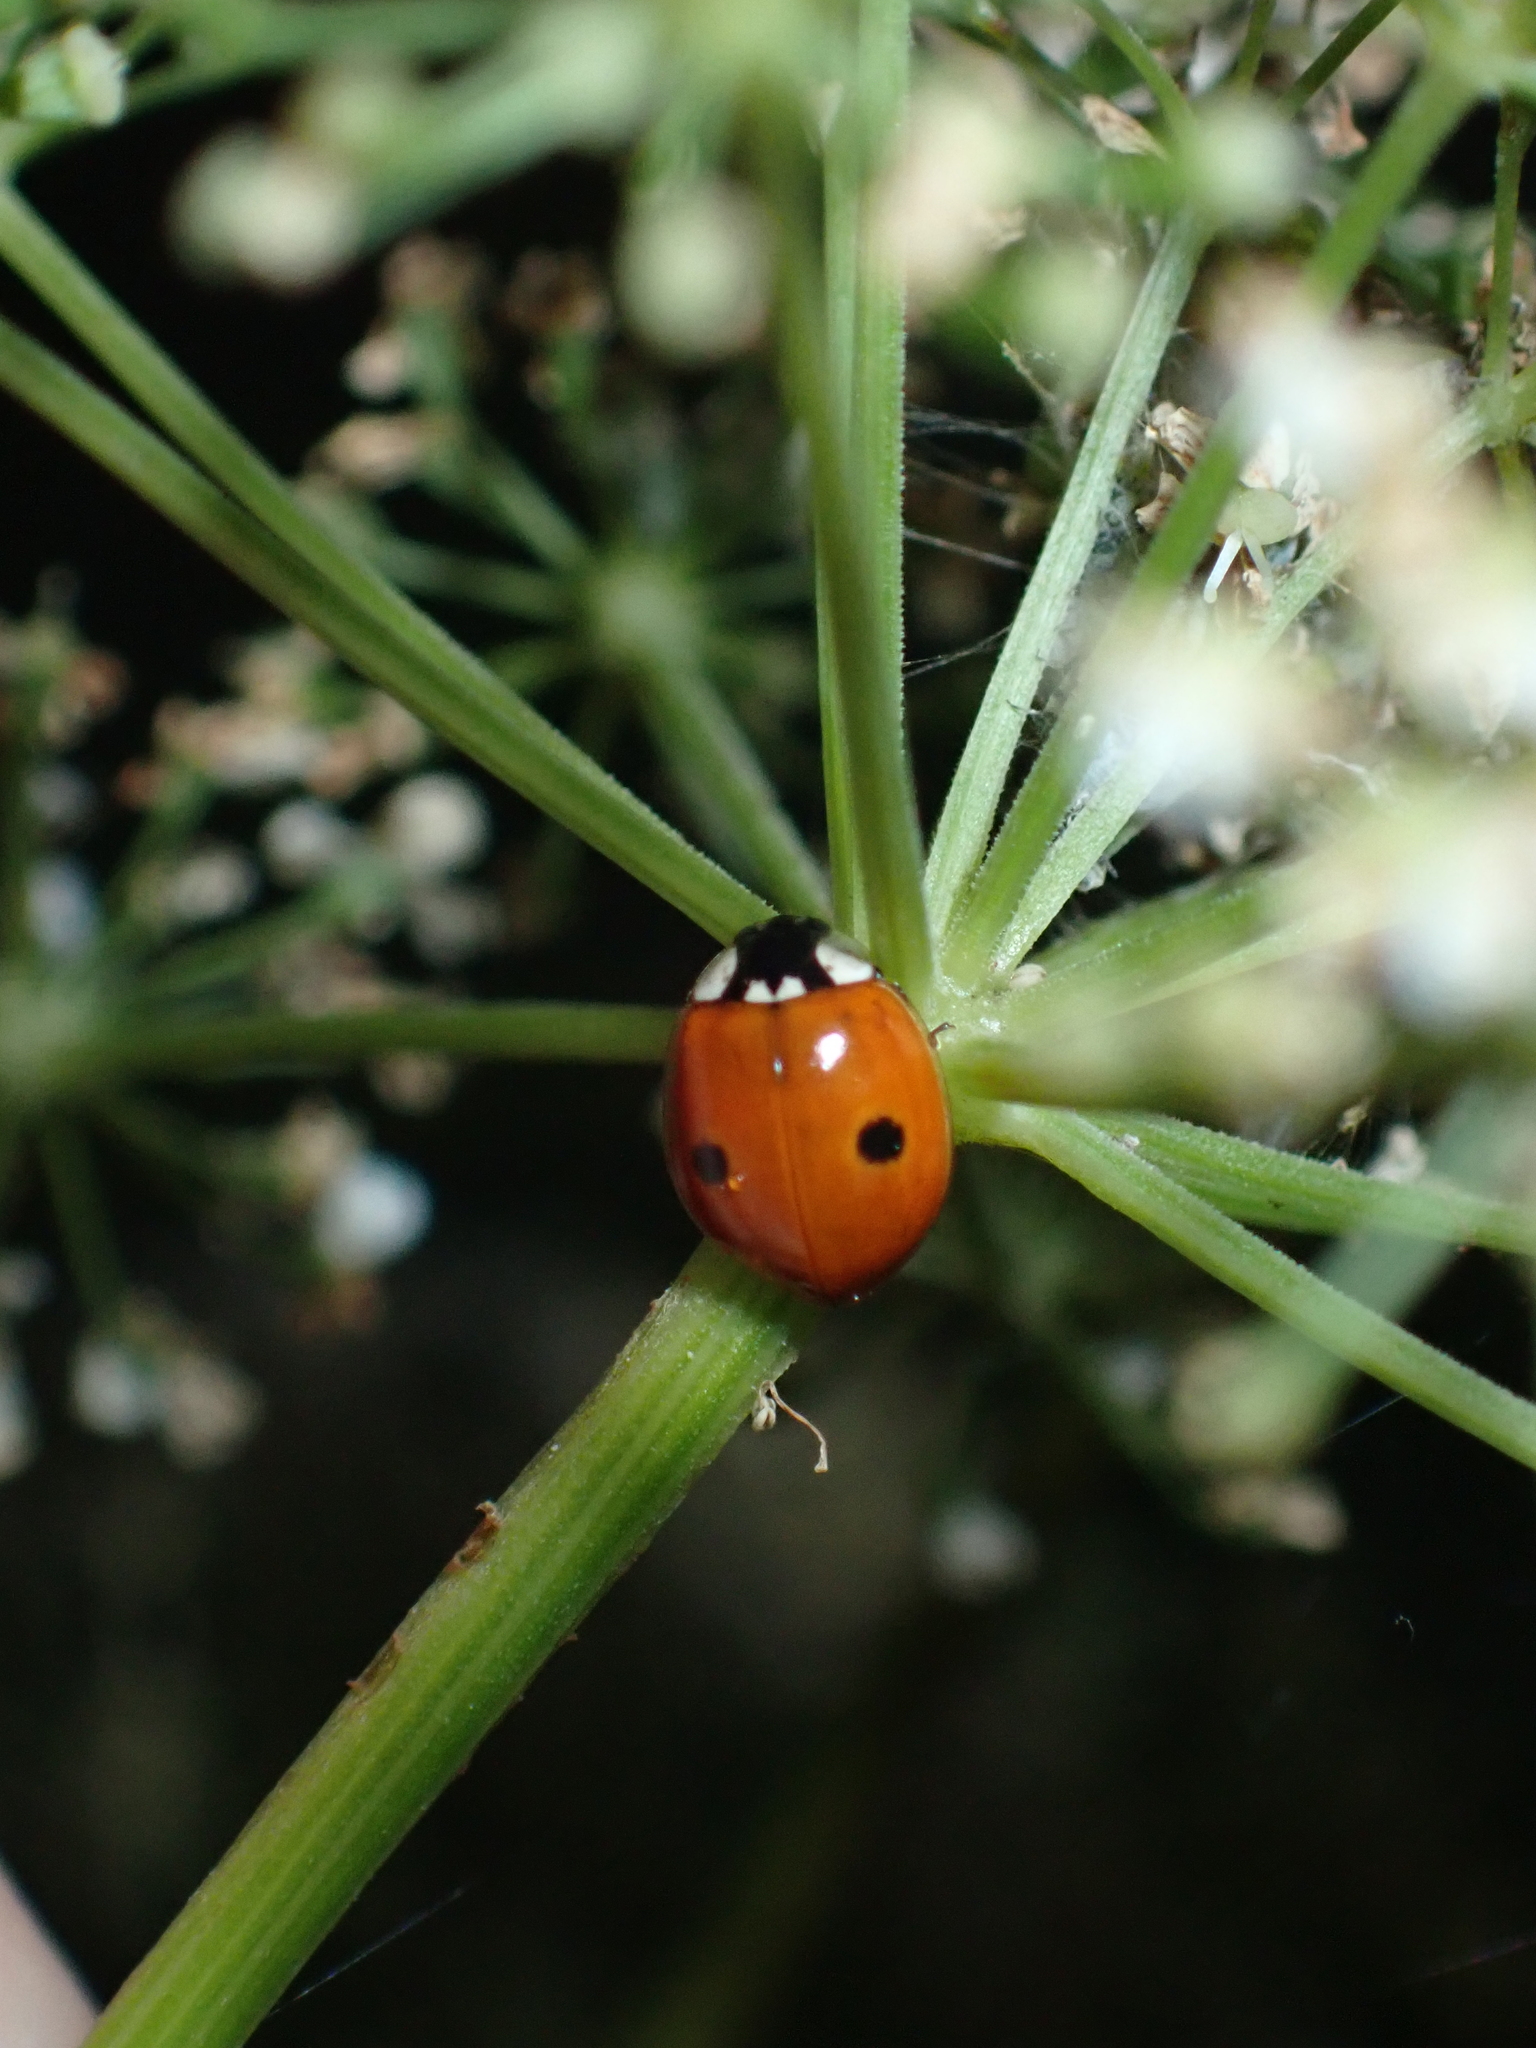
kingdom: Animalia
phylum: Arthropoda
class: Insecta
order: Coleoptera
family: Coccinellidae
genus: Adalia
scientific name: Adalia bipunctata
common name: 2-spot ladybird
